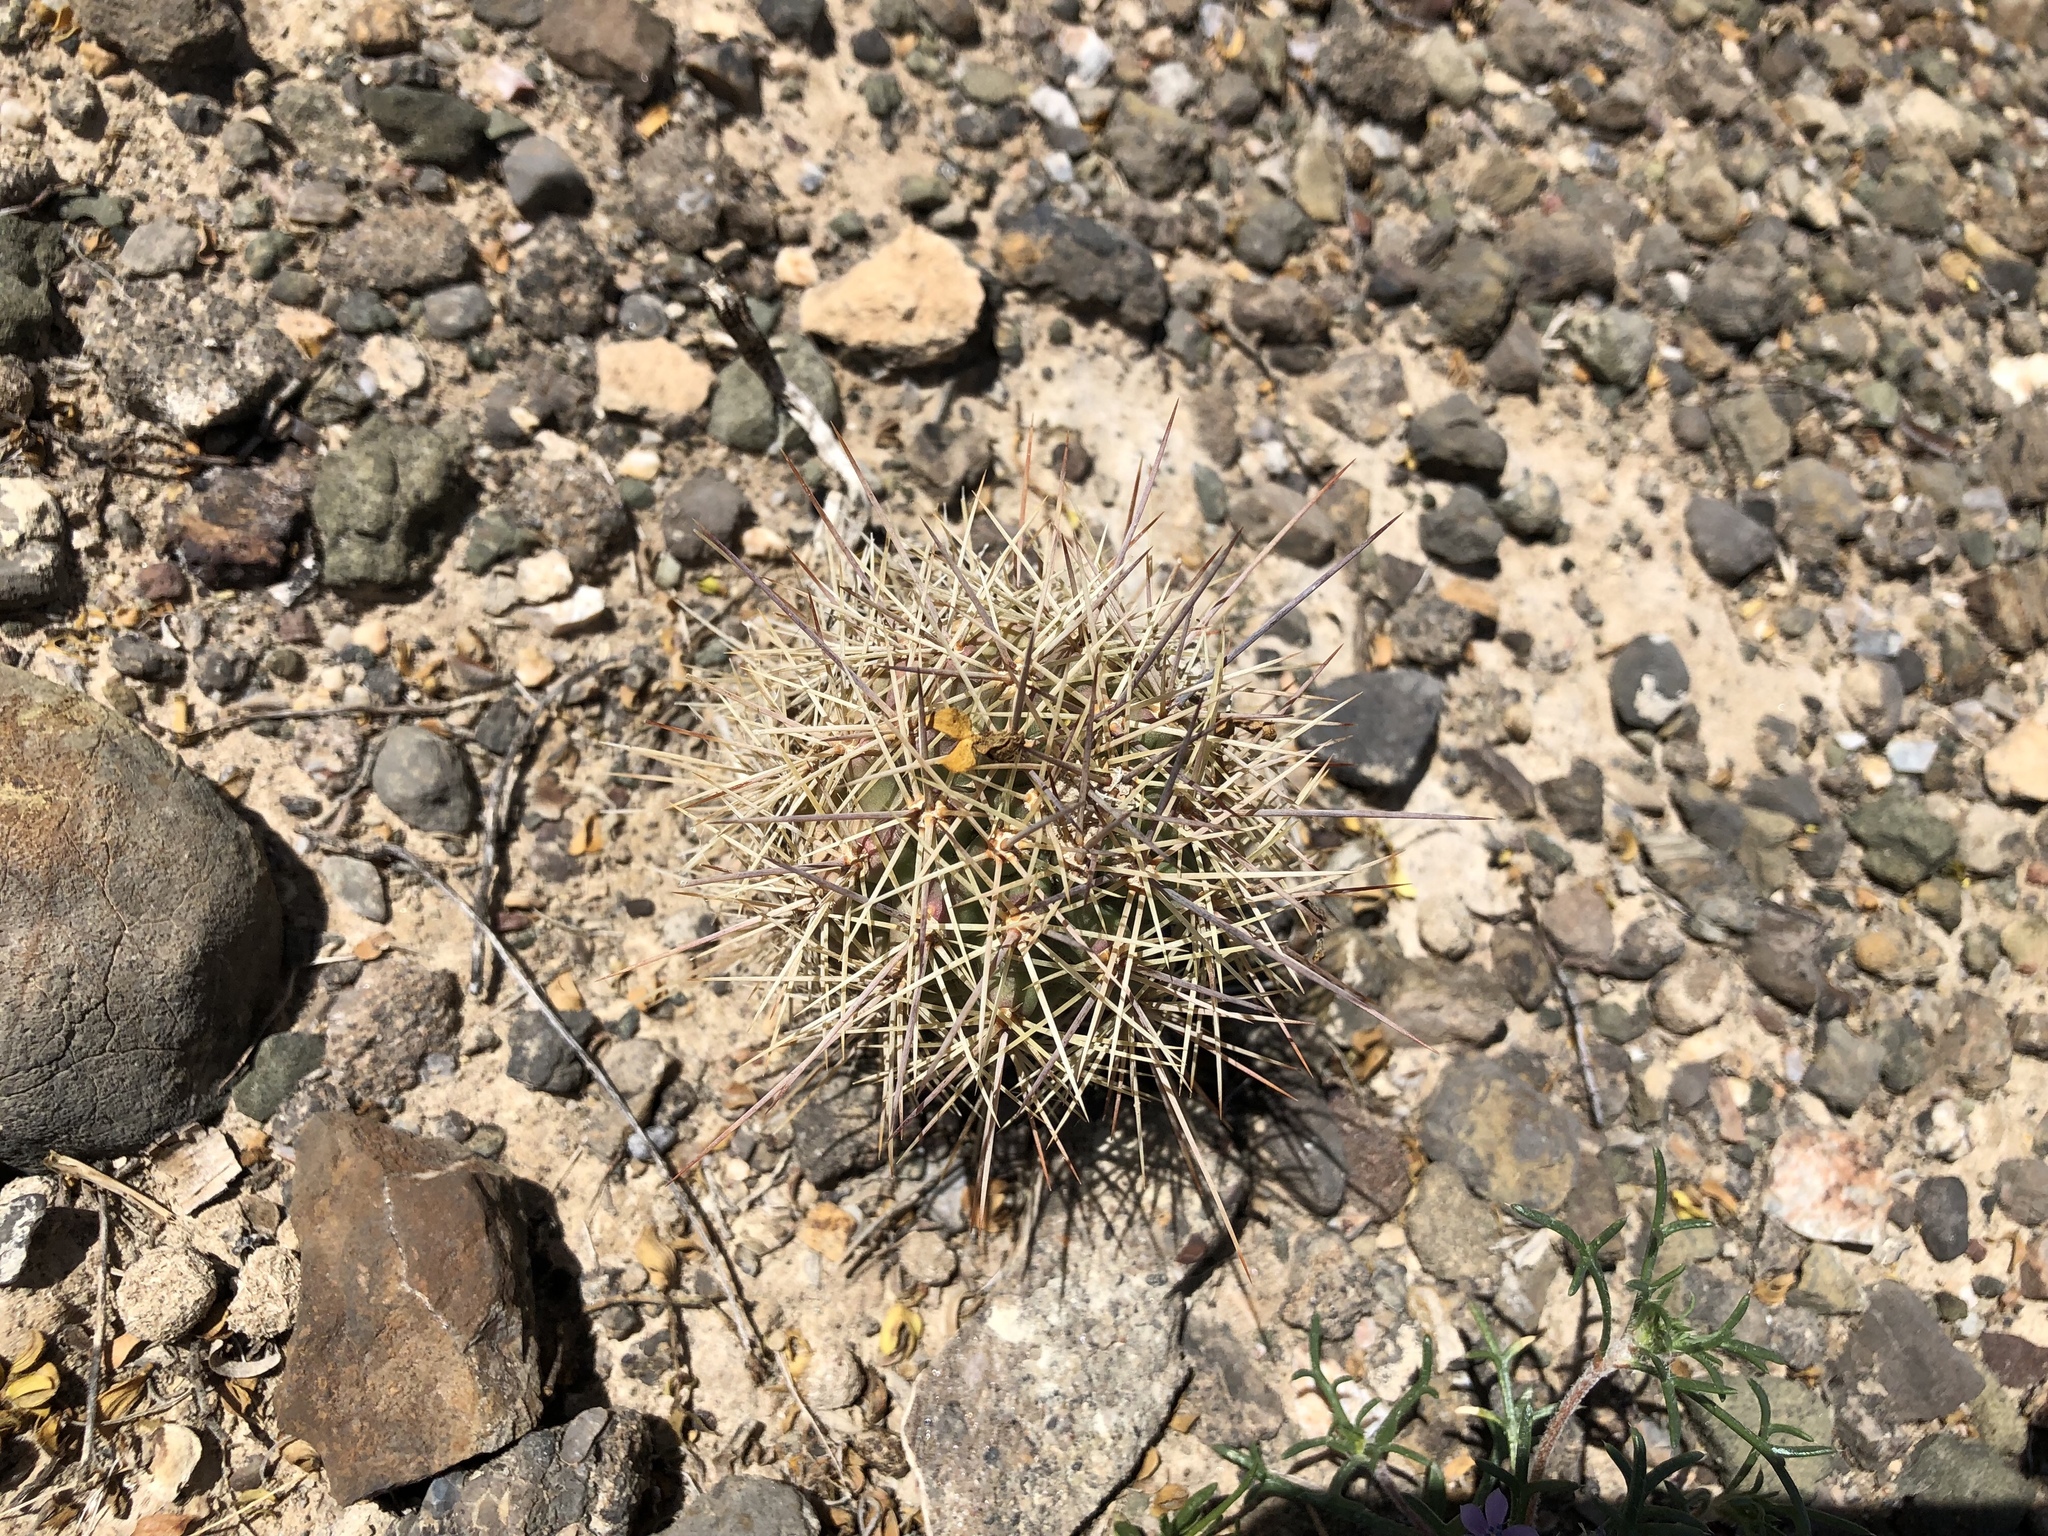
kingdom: Plantae
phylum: Tracheophyta
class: Magnoliopsida
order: Caryophyllales
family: Cactaceae
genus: Echinocereus
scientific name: Echinocereus coccineus
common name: Scarlet hedgehog cactus
